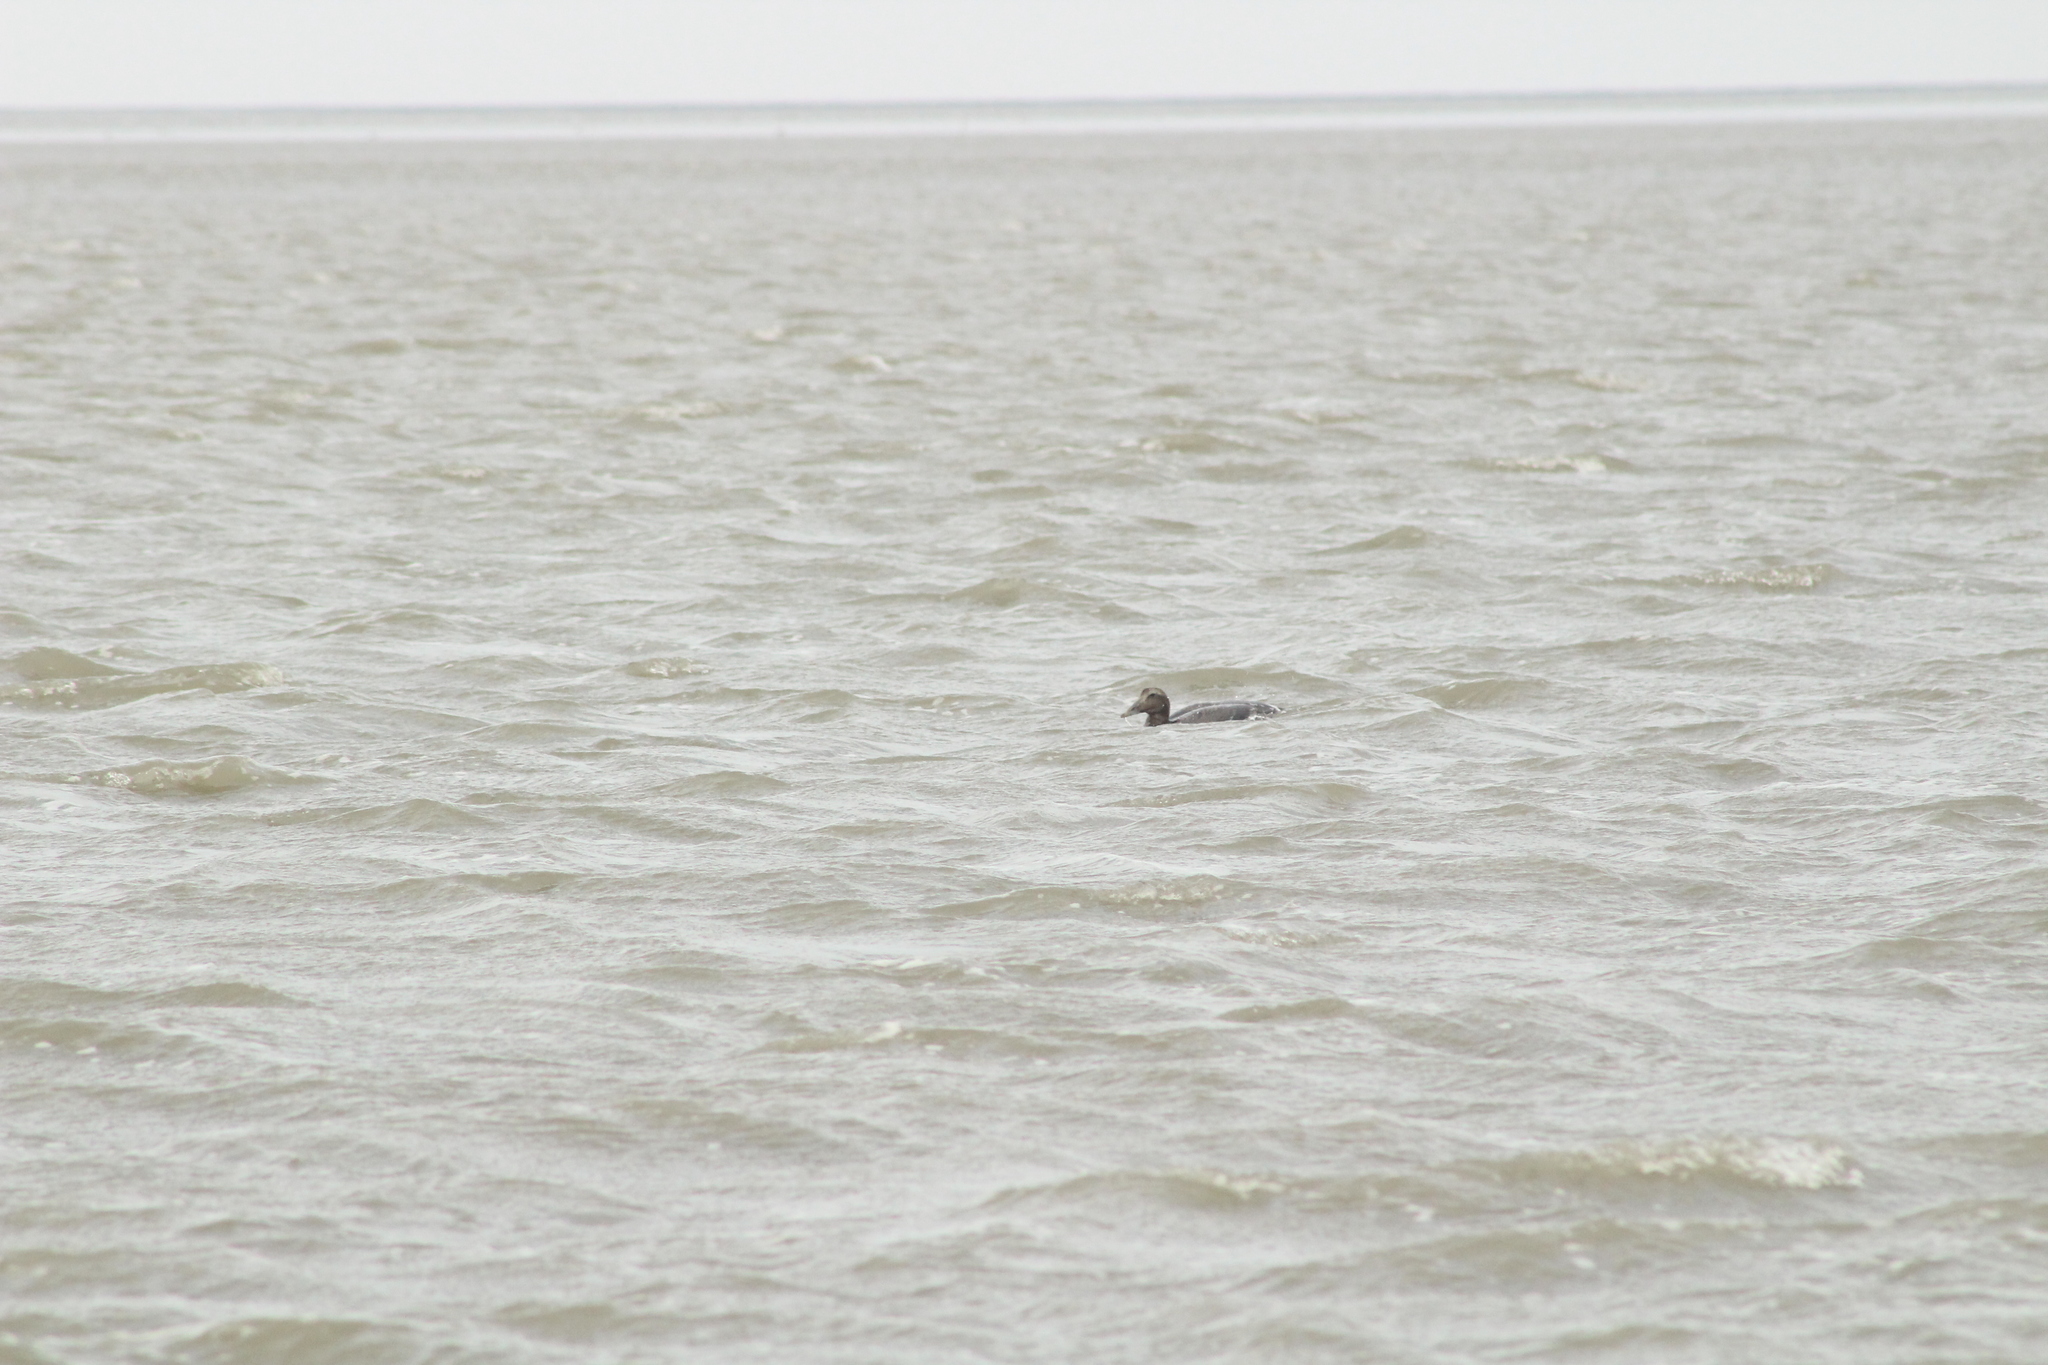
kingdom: Animalia
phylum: Chordata
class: Aves
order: Anseriformes
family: Anatidae
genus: Somateria
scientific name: Somateria mollissima
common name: Common eider
